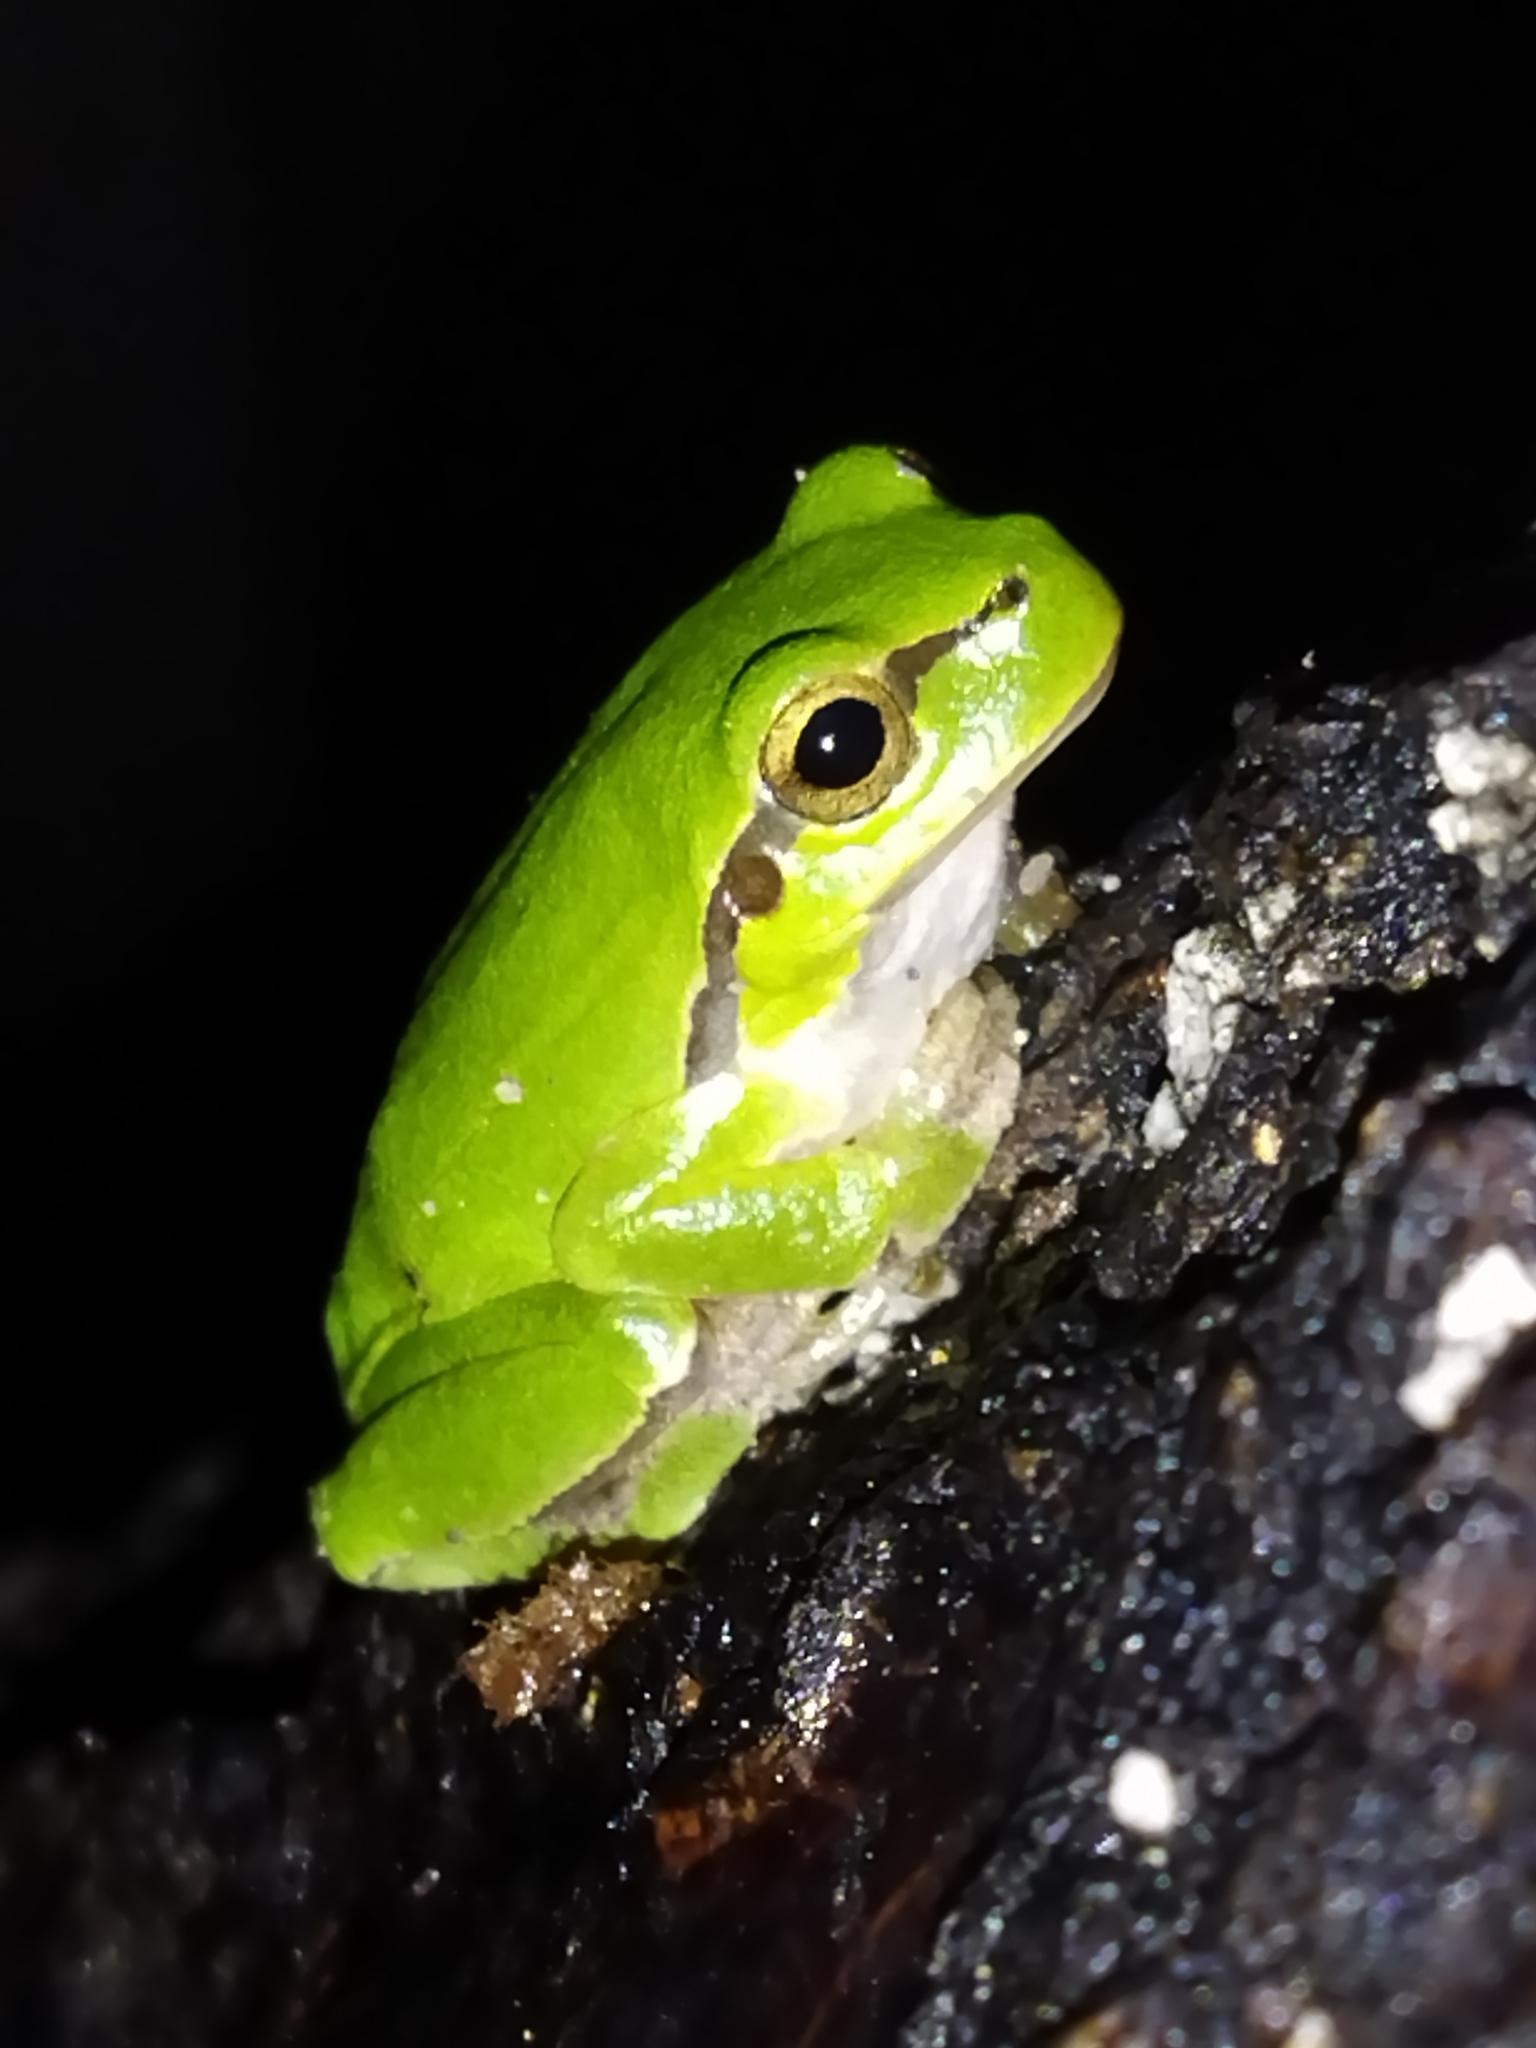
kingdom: Animalia
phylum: Chordata
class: Amphibia
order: Anura
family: Hylidae
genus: Hyla
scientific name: Hyla orientalis
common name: Caucasian treefrog
